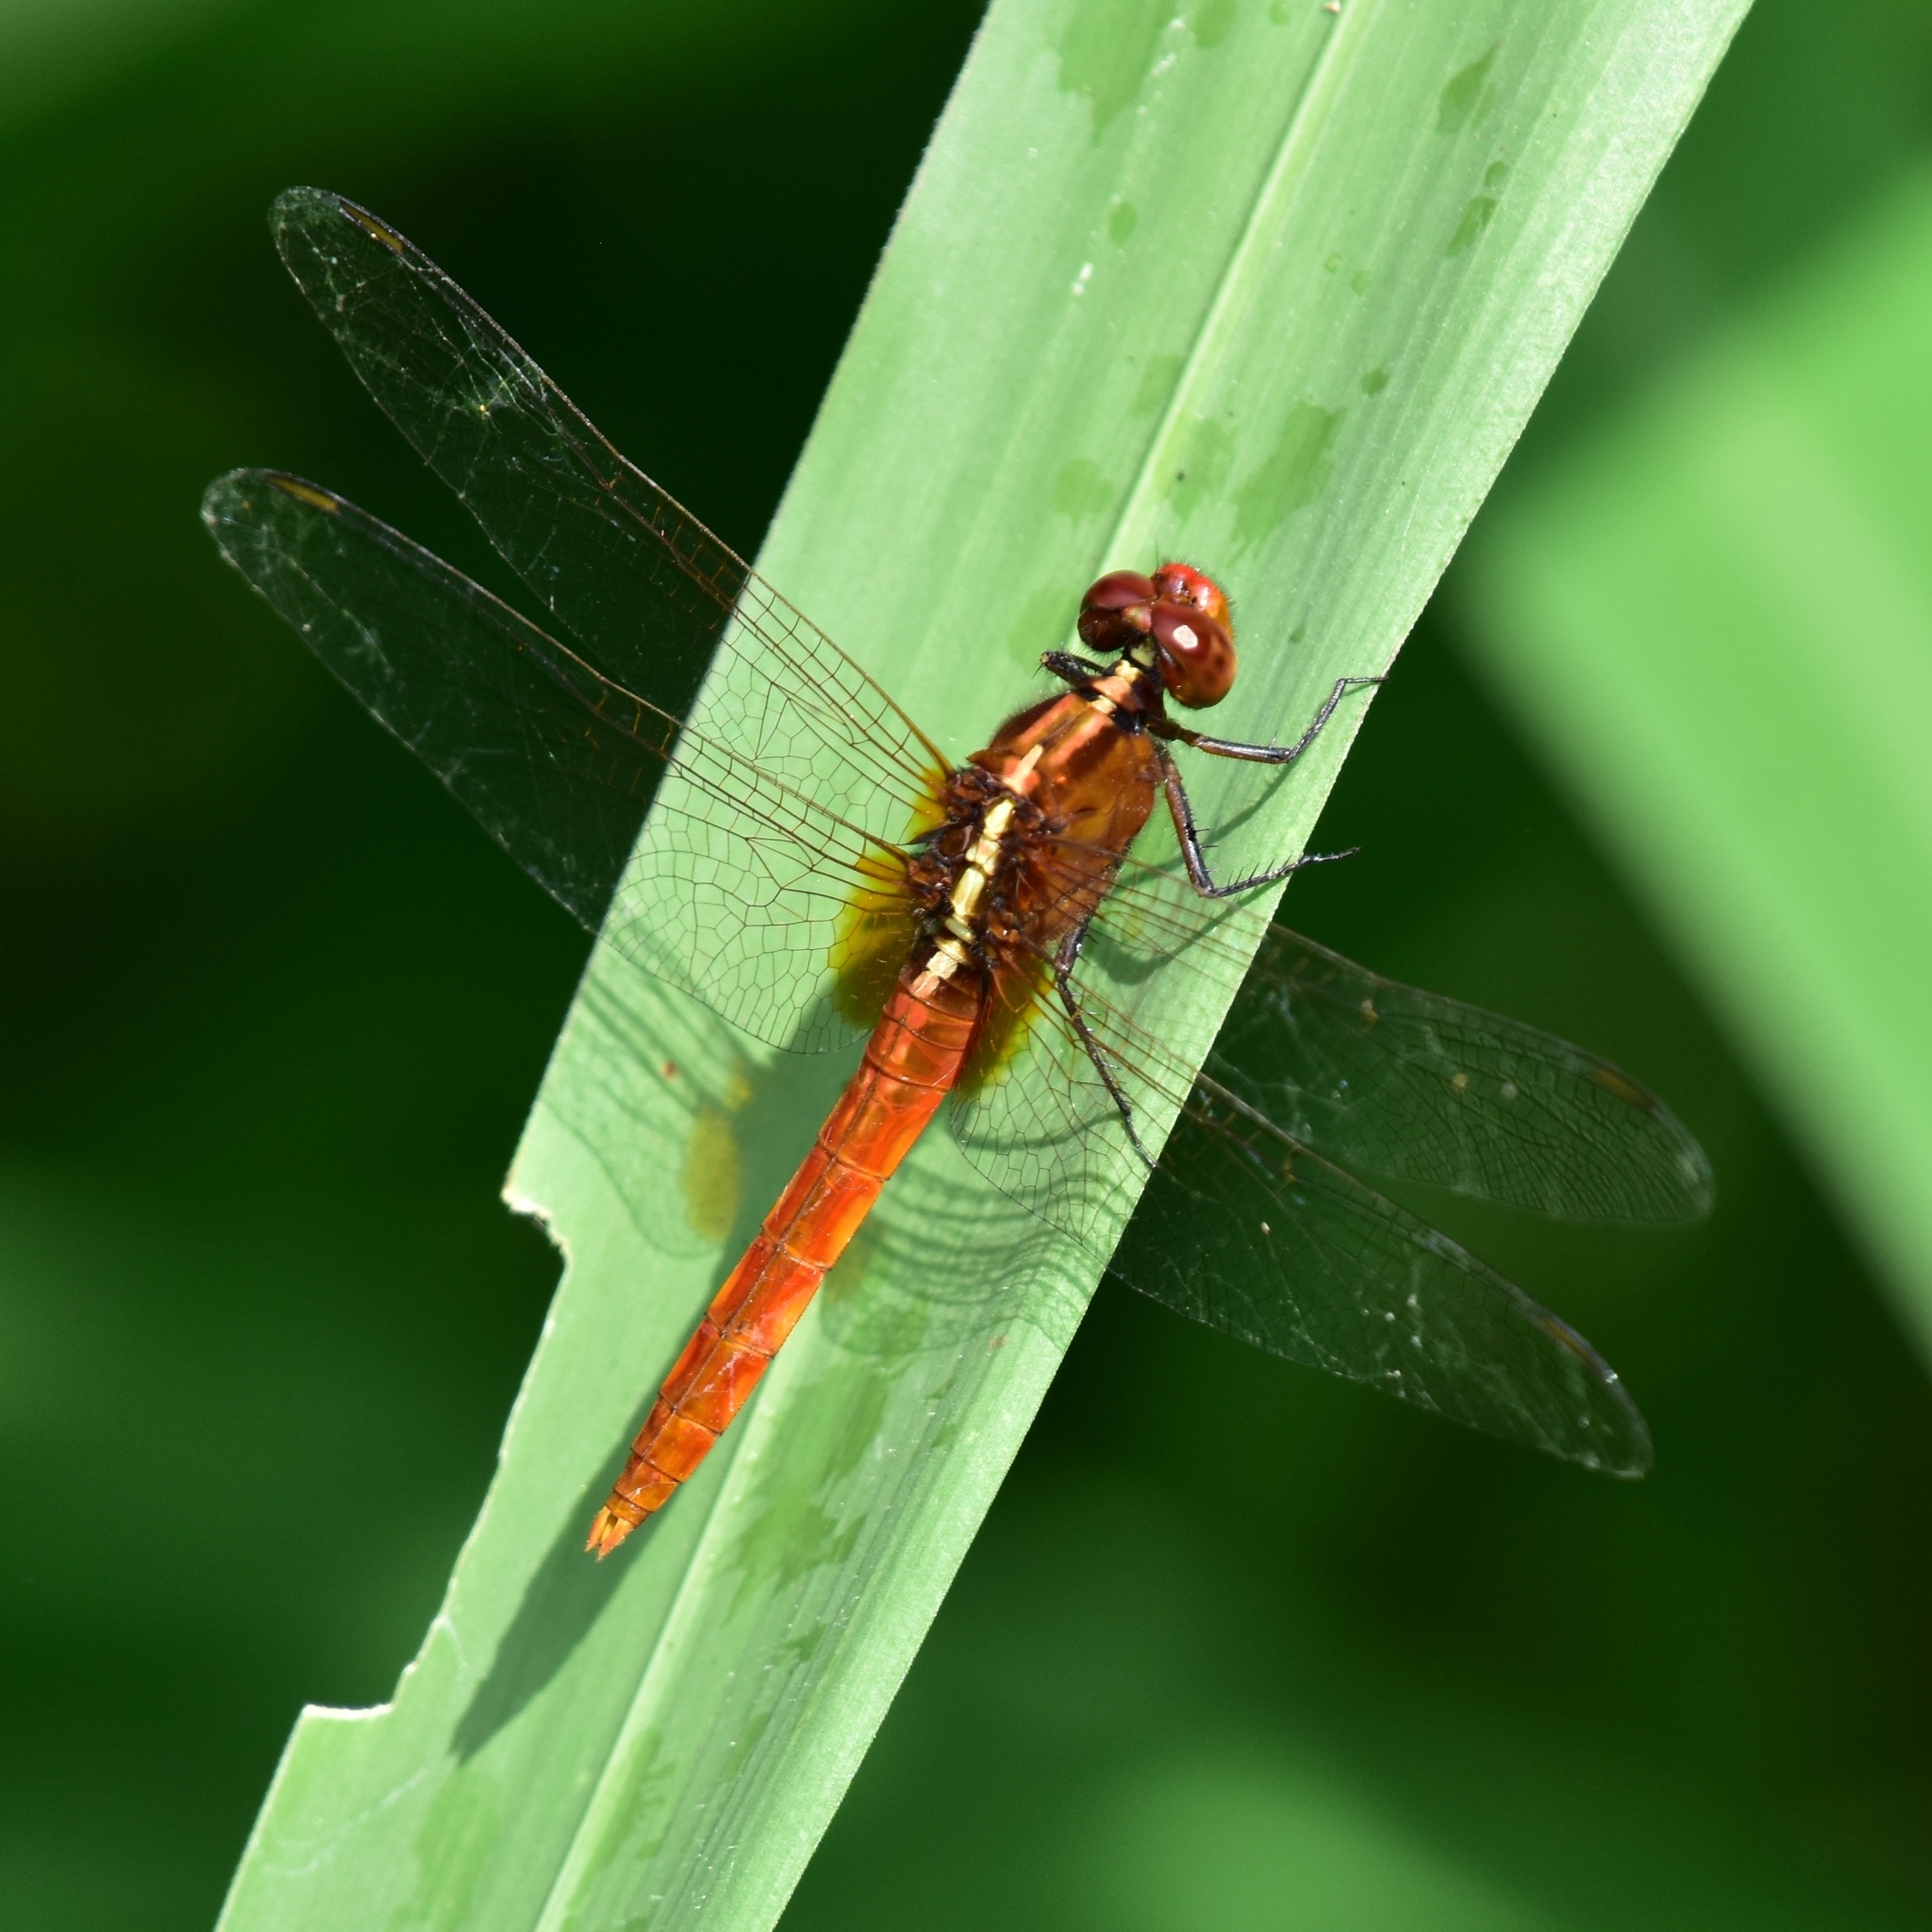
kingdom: Animalia
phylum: Arthropoda
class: Insecta
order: Odonata
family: Libellulidae
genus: Rhodothemis
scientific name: Rhodothemis rufa
